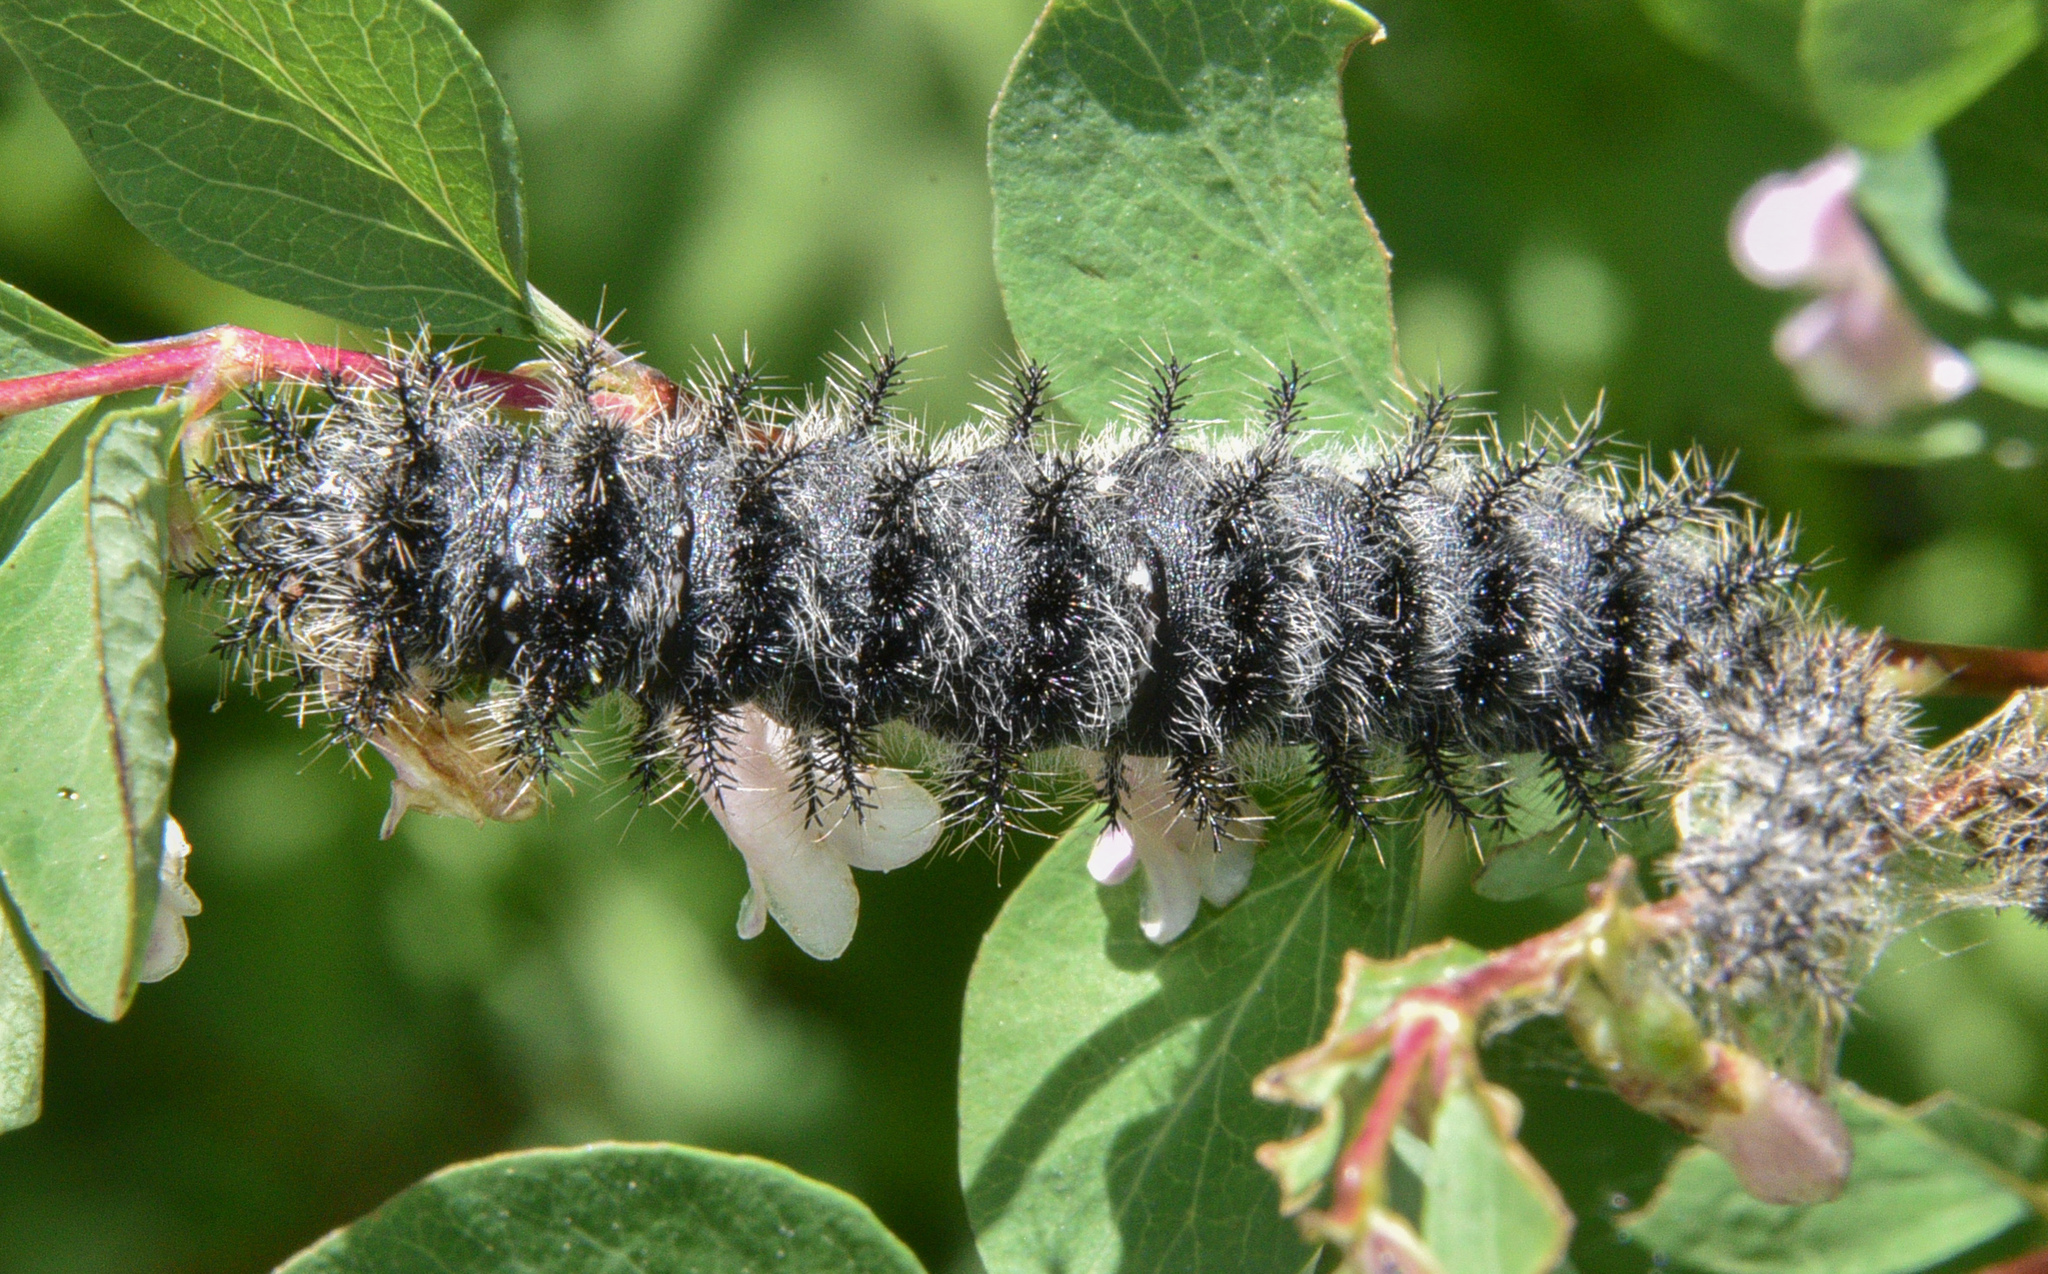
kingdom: Animalia
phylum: Arthropoda
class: Insecta
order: Lepidoptera
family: Saturniidae
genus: Hemileuca
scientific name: Hemileuca nutalli
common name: Nuttall's sheepmoth
